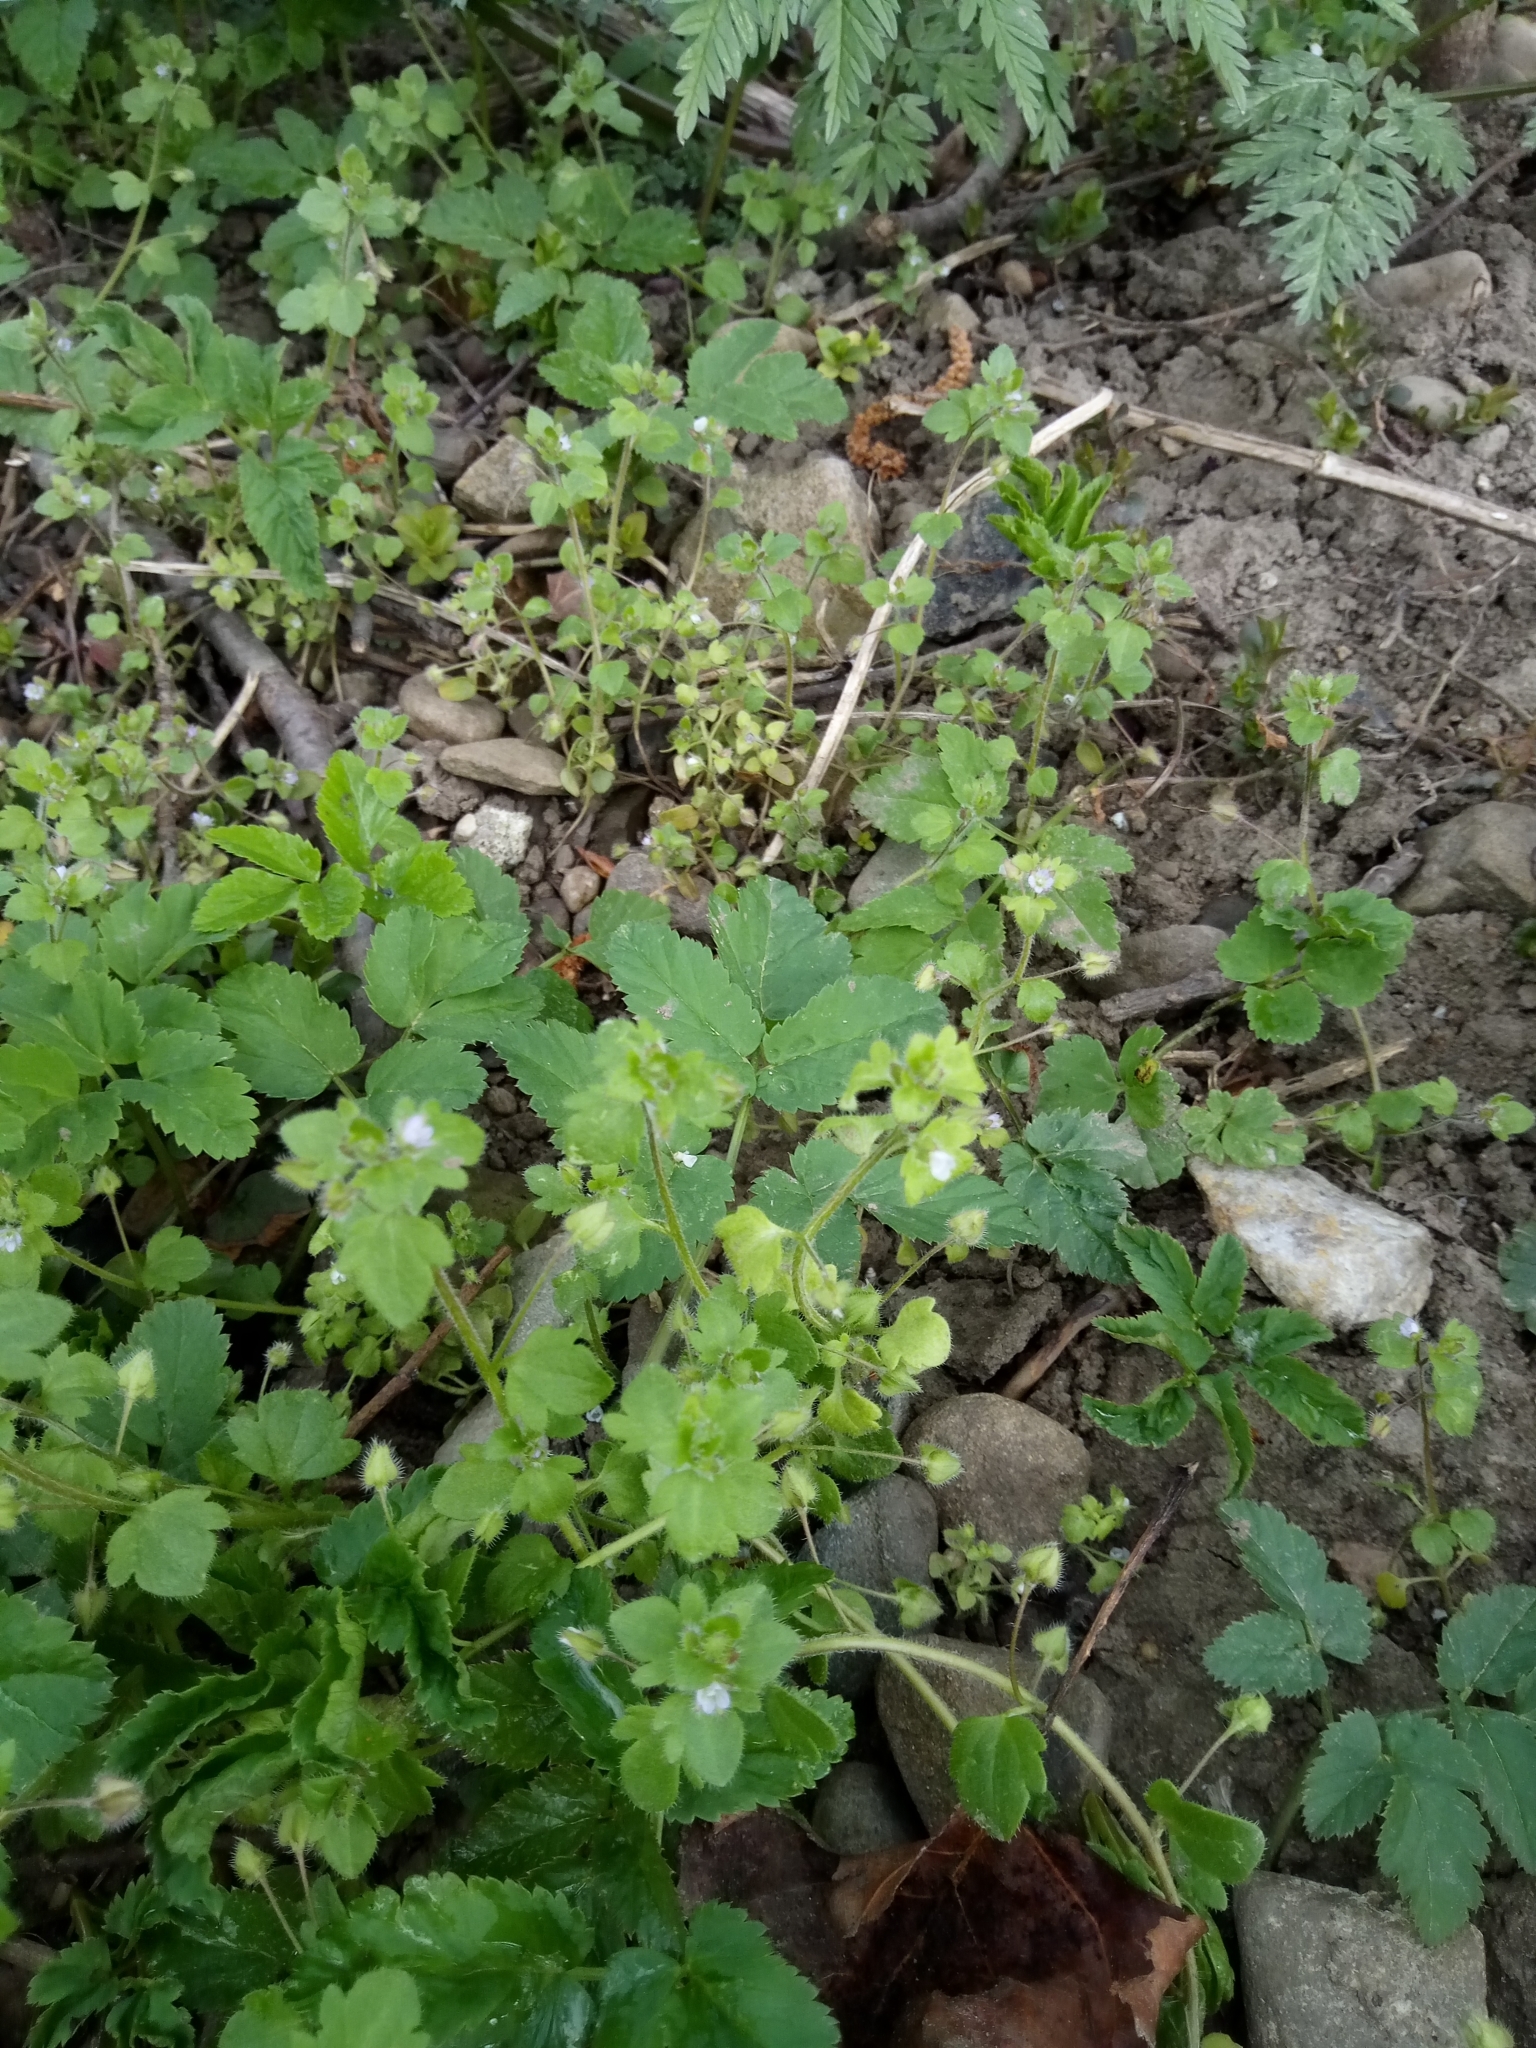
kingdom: Plantae
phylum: Tracheophyta
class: Magnoliopsida
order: Lamiales
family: Plantaginaceae
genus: Veronica
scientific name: Veronica sublobata
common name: False ivy-leaved speedwell
